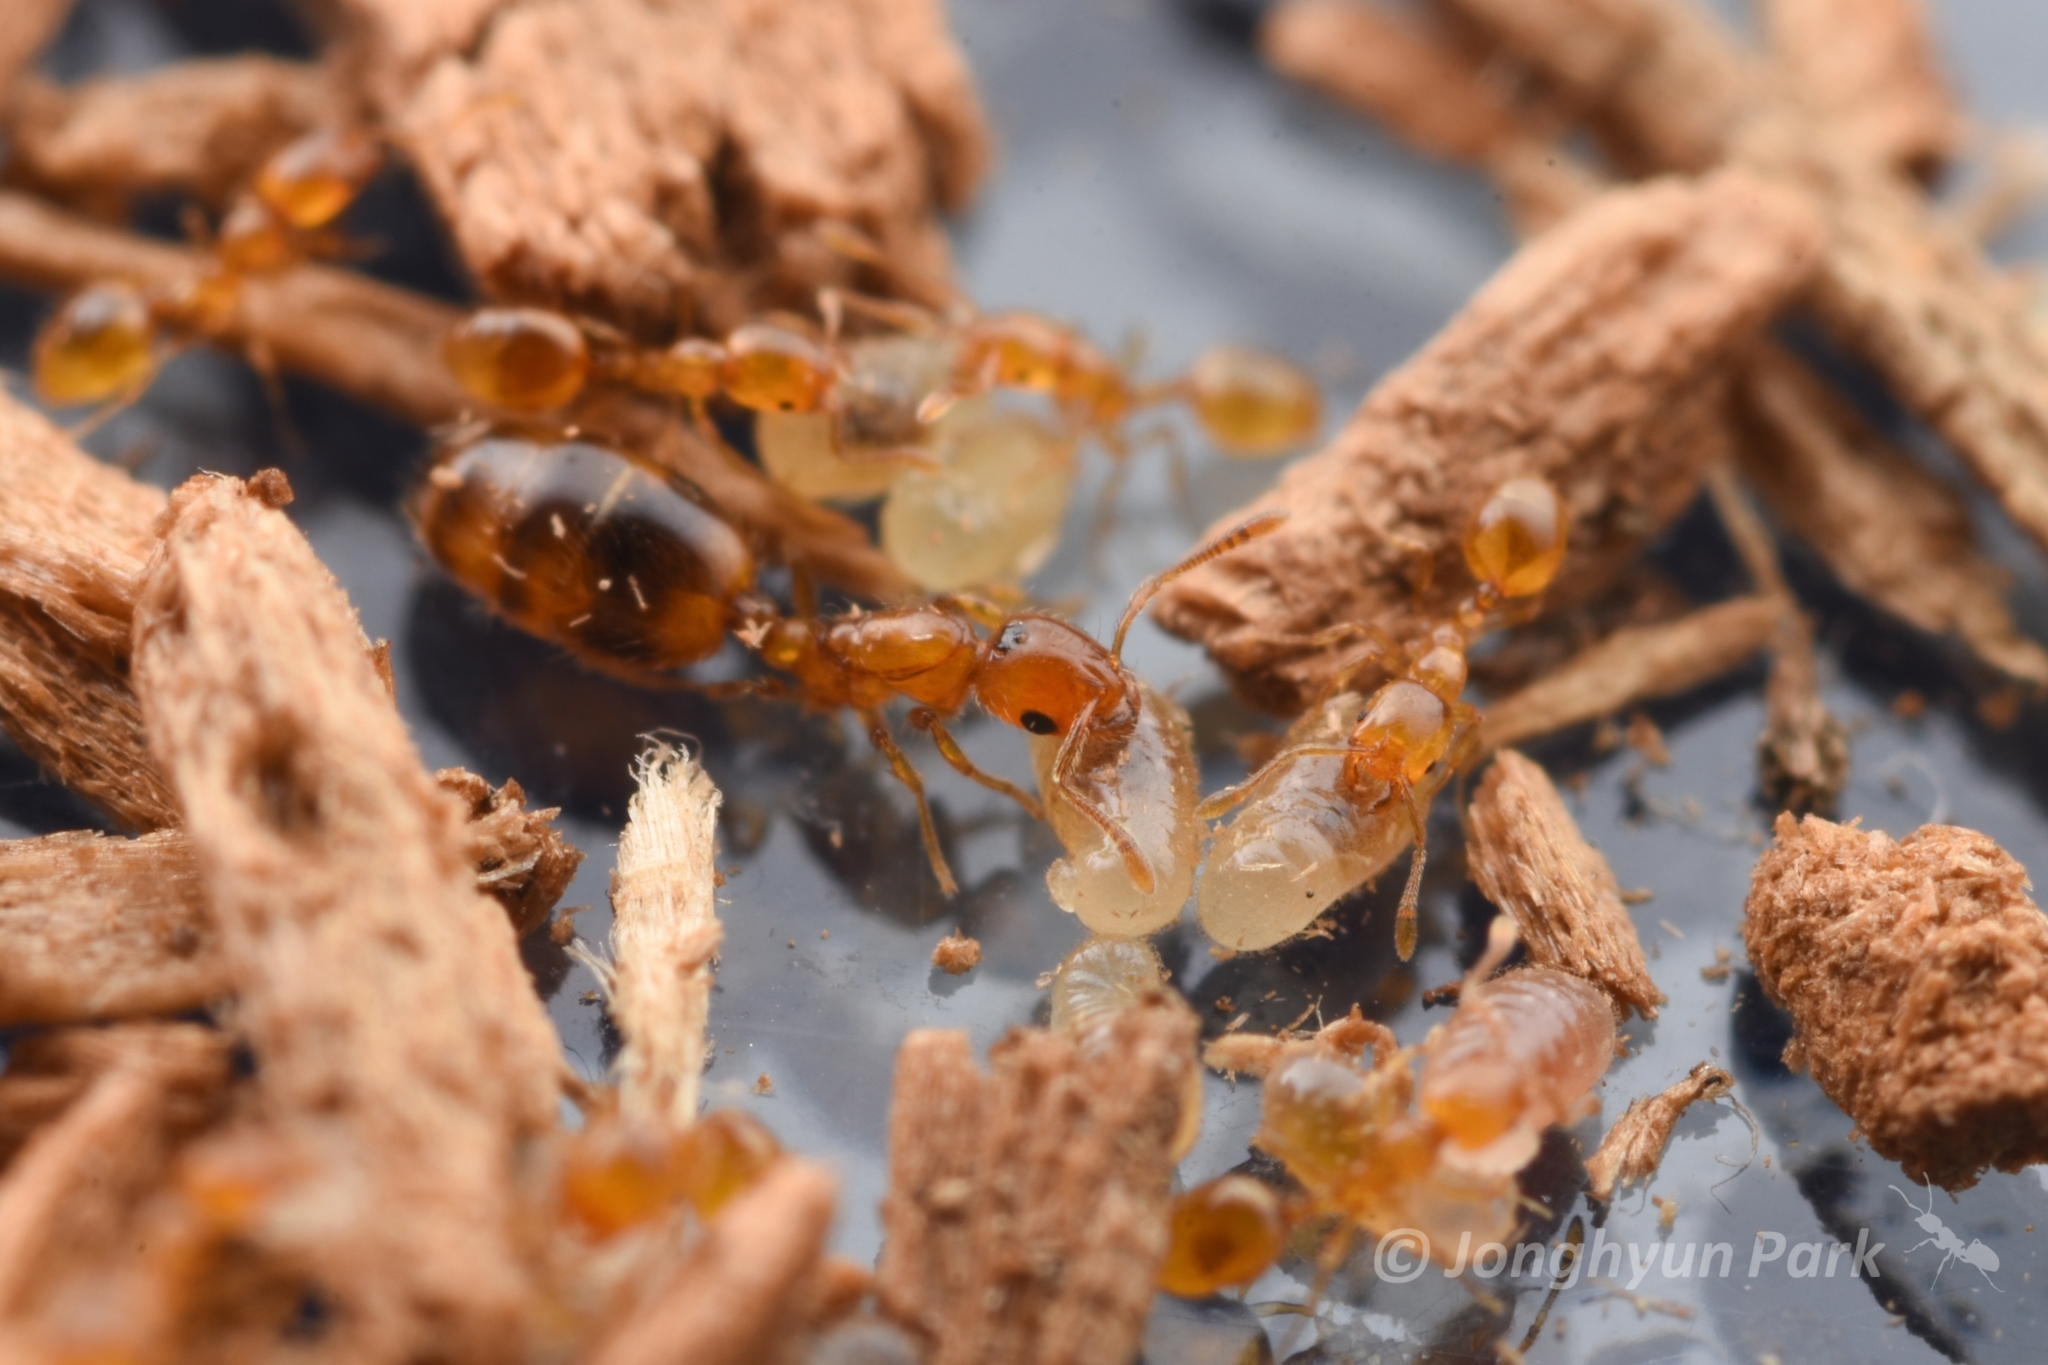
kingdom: Animalia
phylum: Arthropoda
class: Insecta
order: Hymenoptera
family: Formicidae
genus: Monomorium
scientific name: Monomorium triviale
